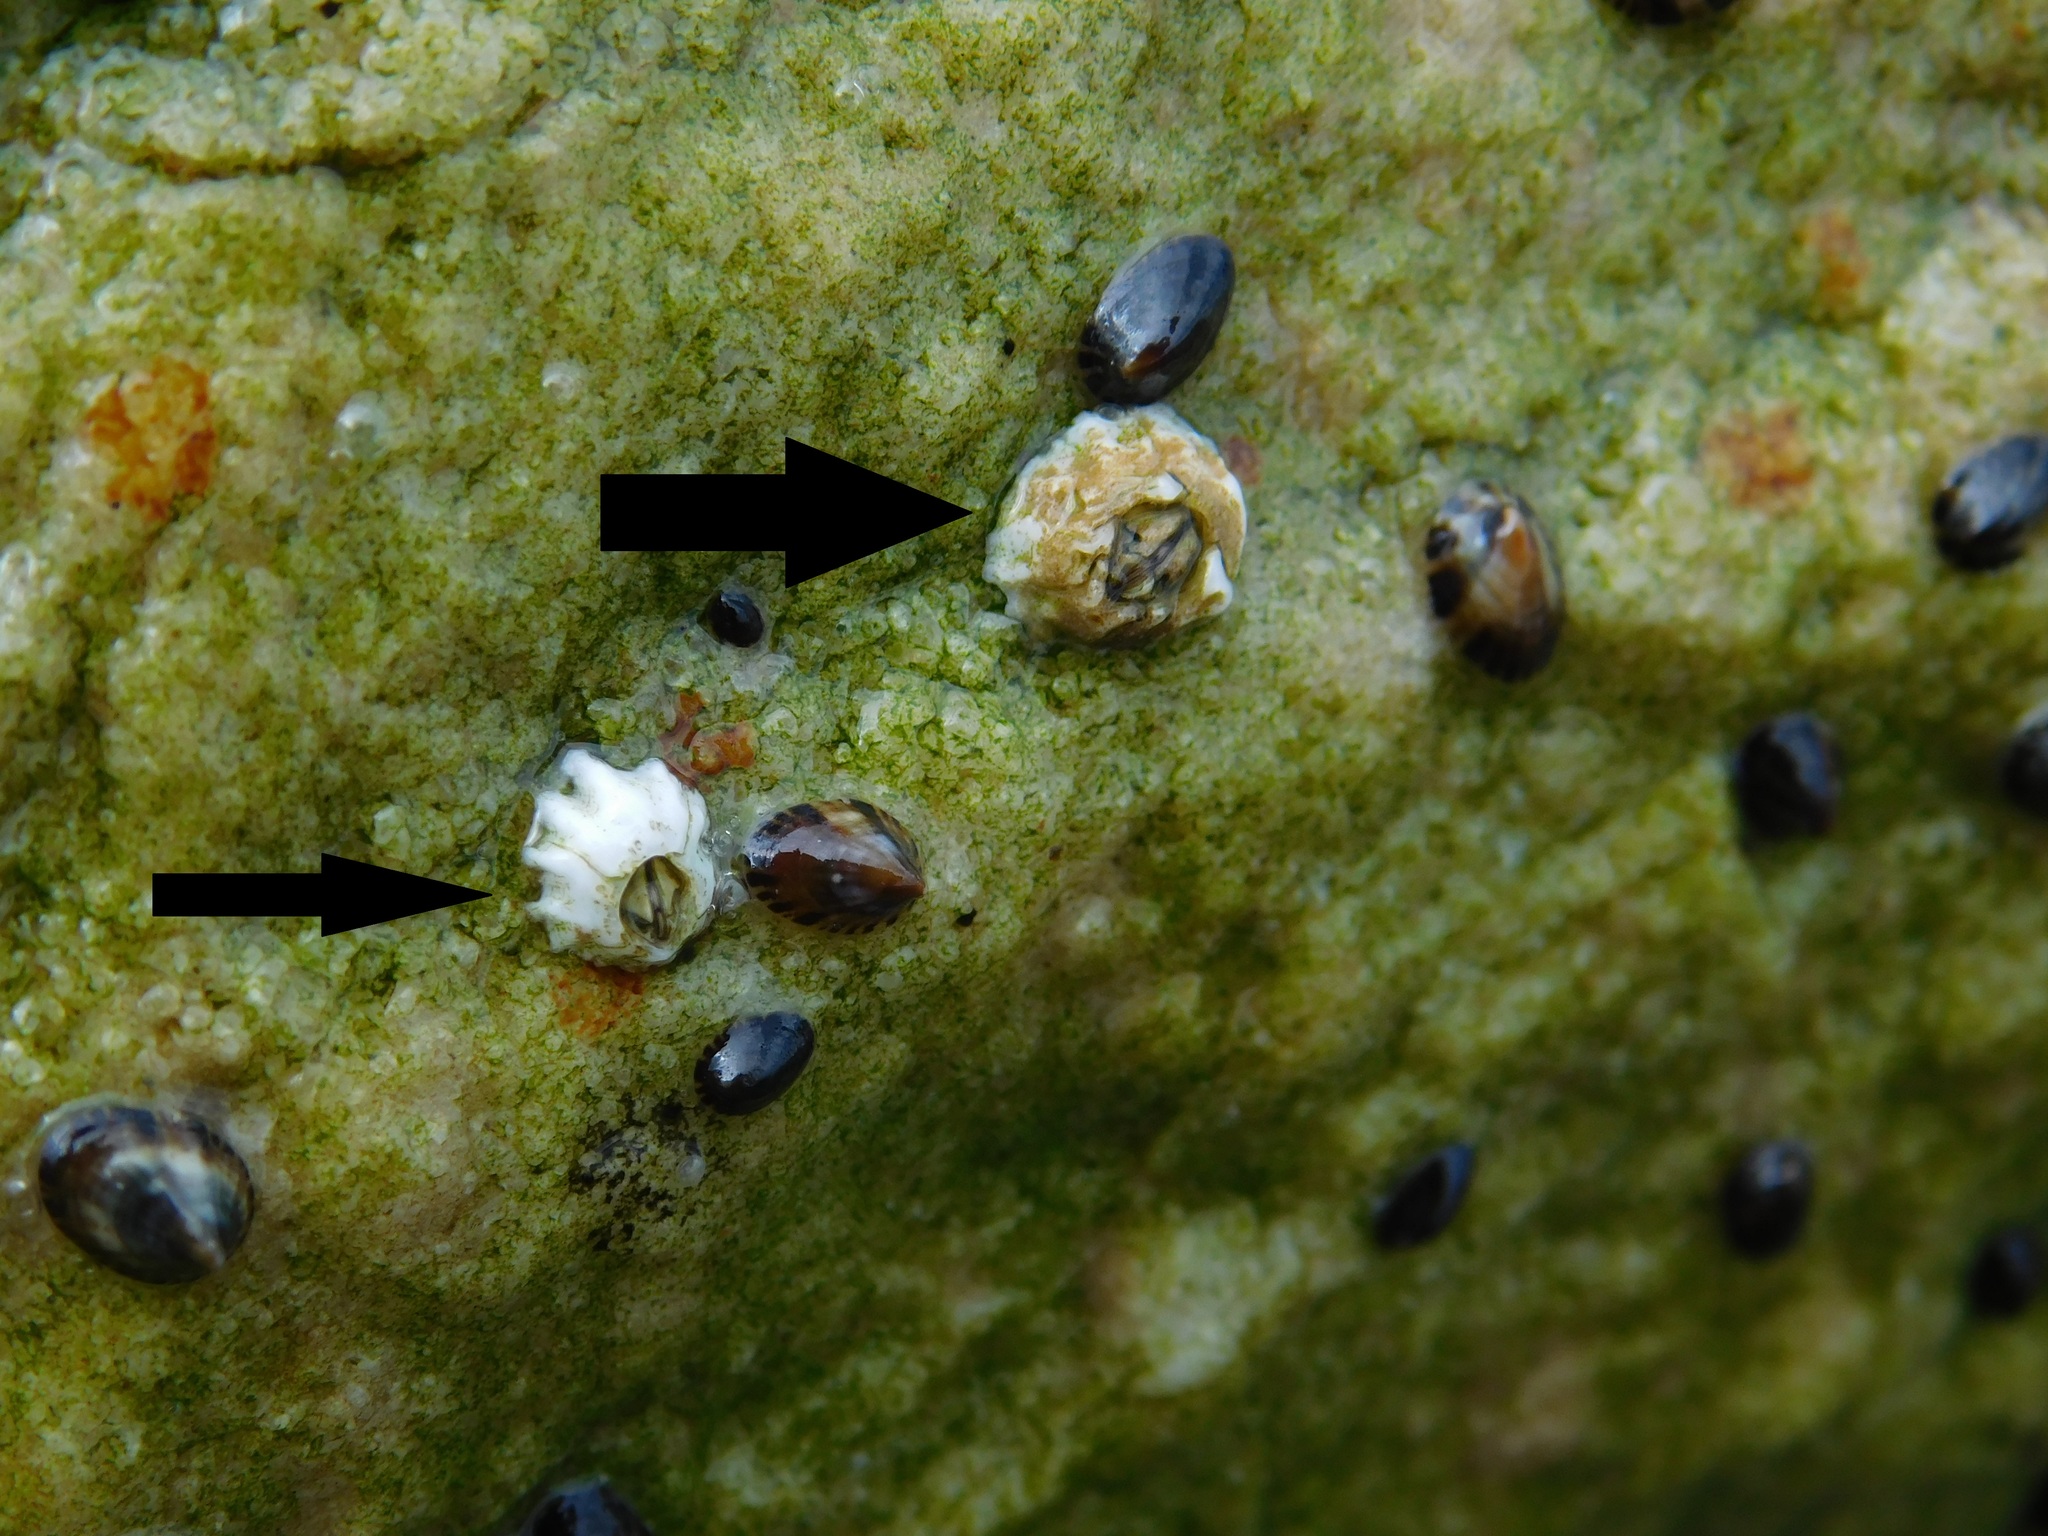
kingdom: Animalia
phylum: Arthropoda
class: Maxillopoda
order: Sessilia
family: Balanidae
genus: Balanus
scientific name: Balanus glandula
